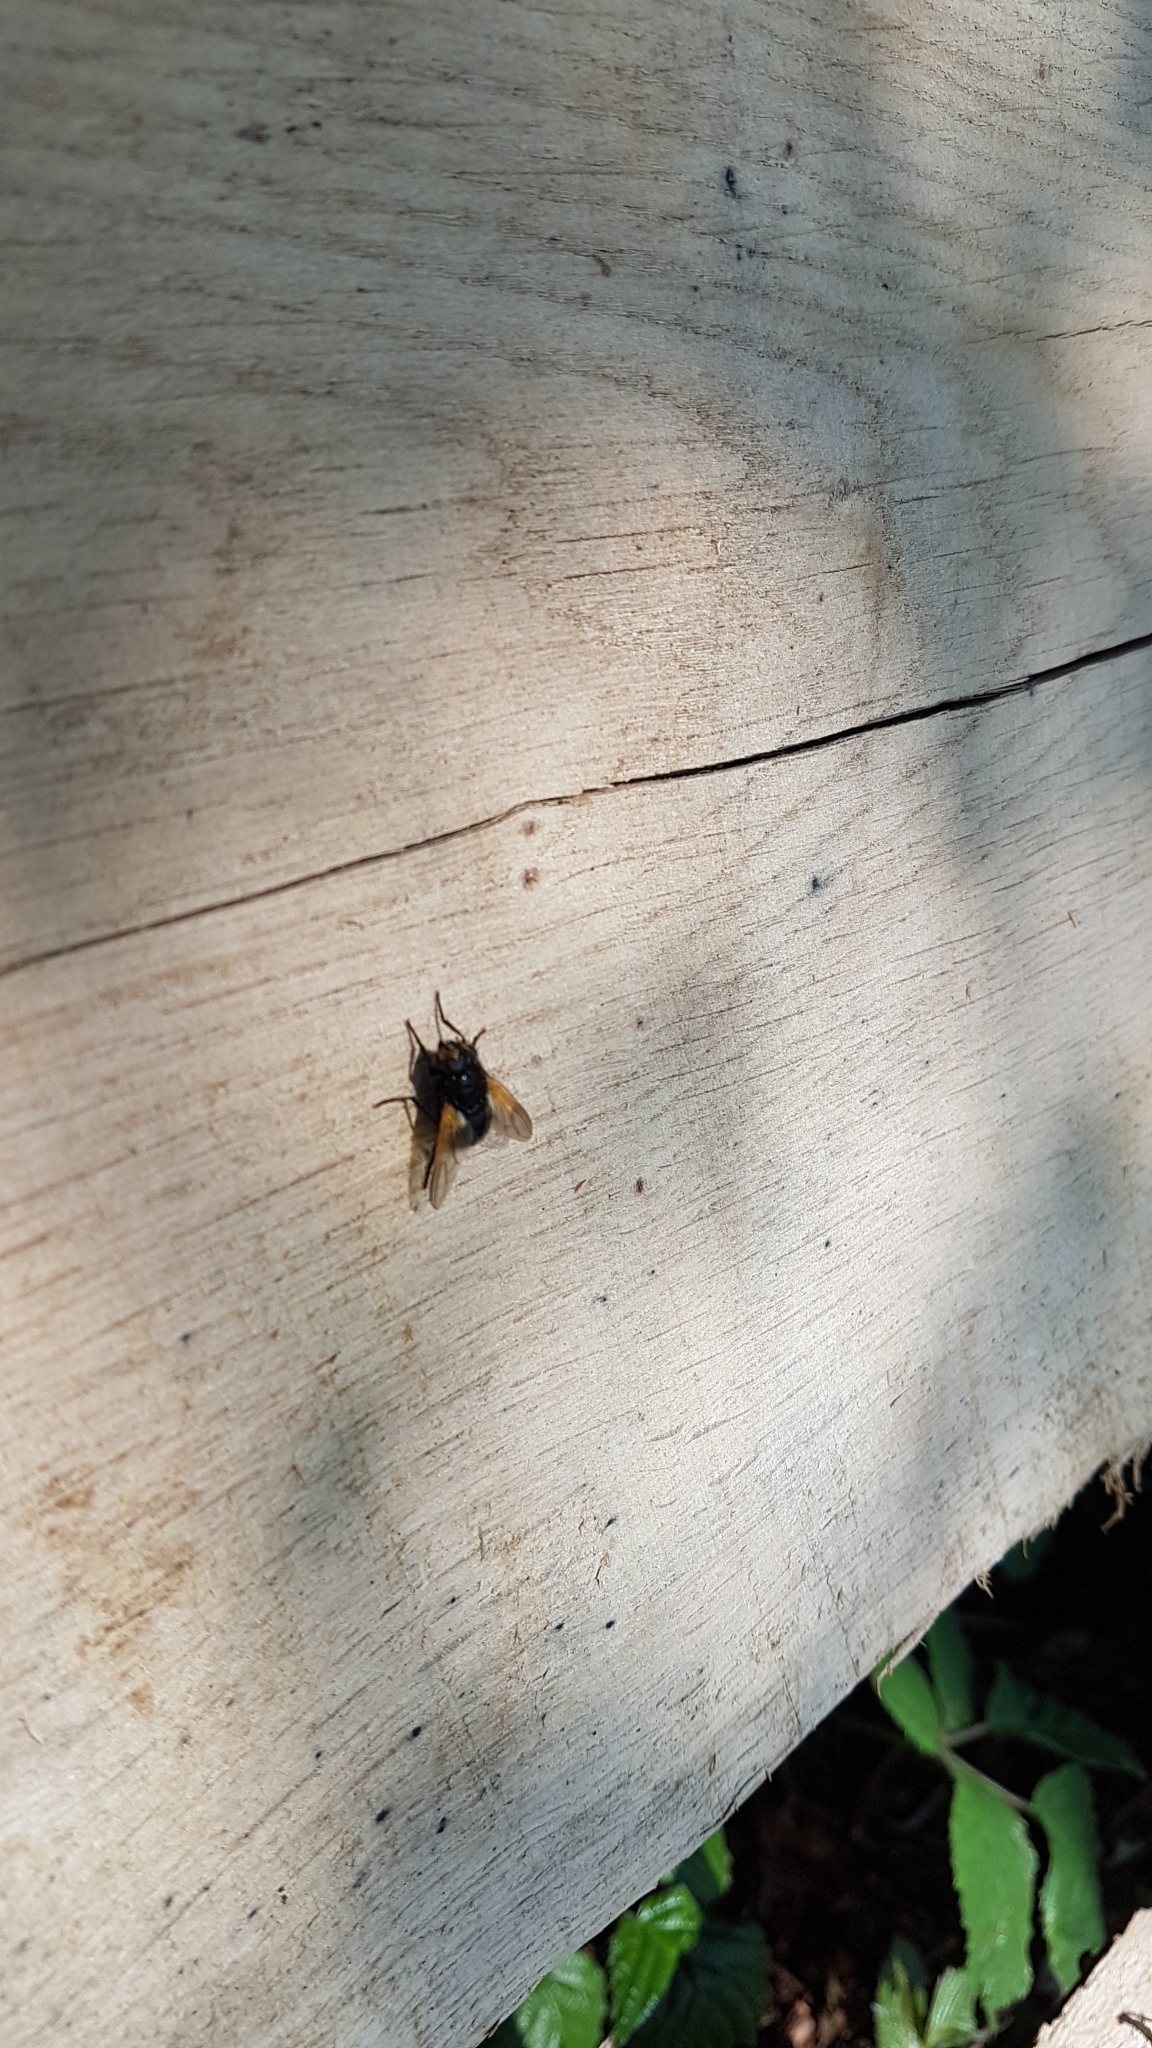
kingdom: Animalia
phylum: Arthropoda
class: Insecta
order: Diptera
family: Muscidae
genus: Mesembrina
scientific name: Mesembrina meridiana
